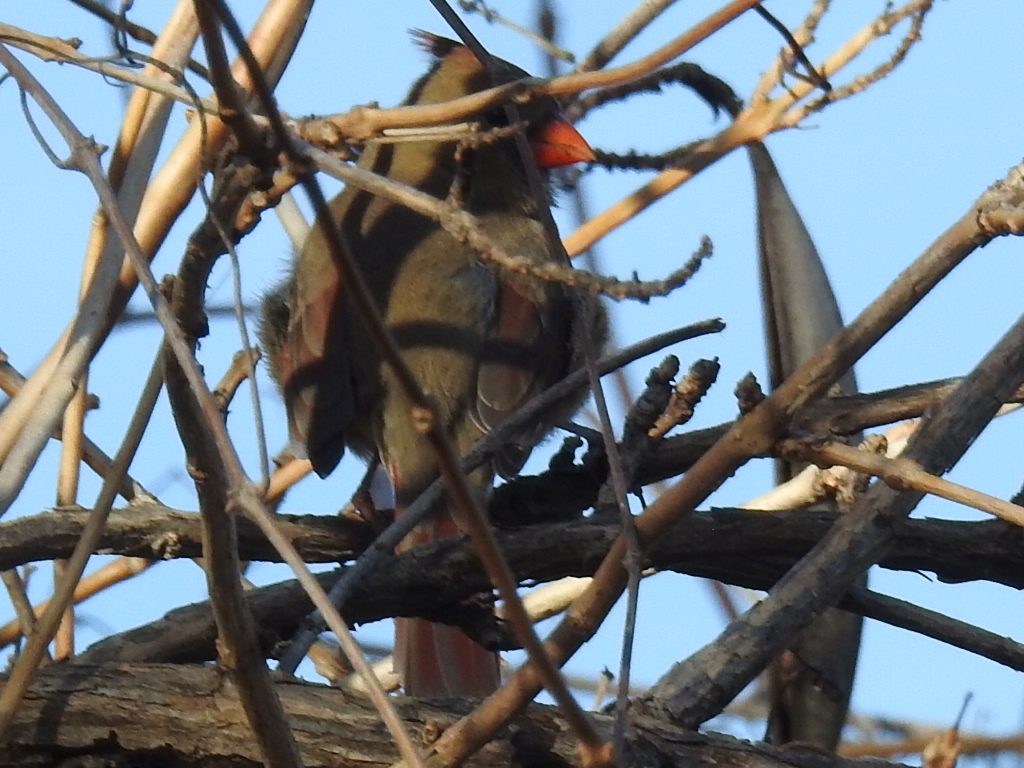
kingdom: Animalia
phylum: Chordata
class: Aves
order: Passeriformes
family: Cardinalidae
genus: Cardinalis
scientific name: Cardinalis cardinalis
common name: Northern cardinal
